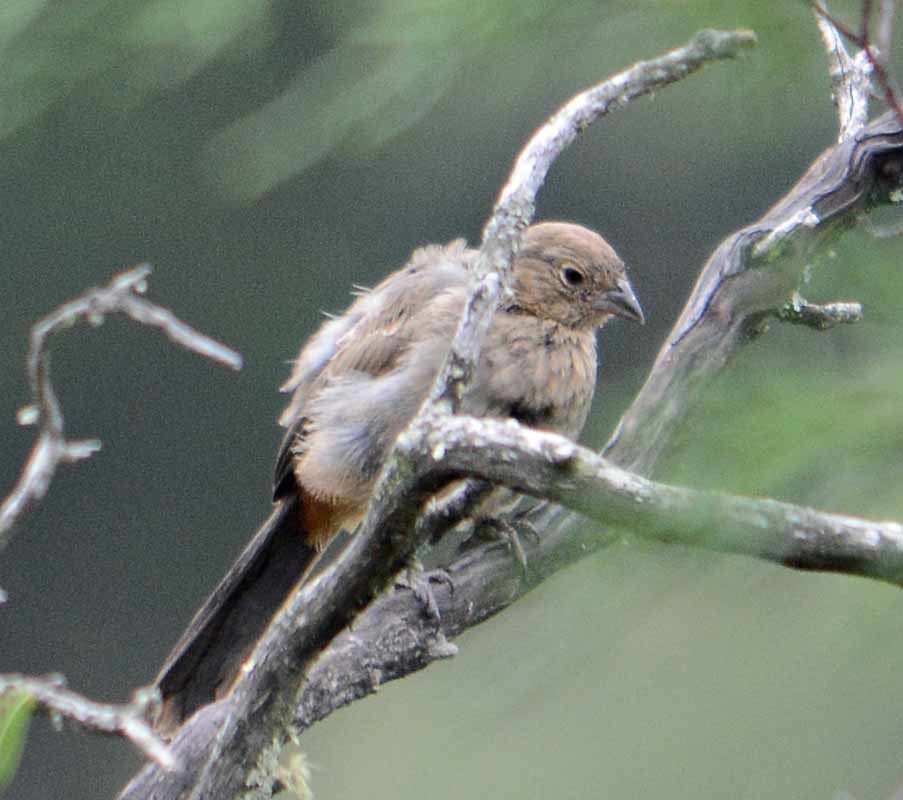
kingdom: Animalia
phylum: Chordata
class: Aves
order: Passeriformes
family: Passerellidae
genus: Melozone
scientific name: Melozone fusca
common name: Canyon towhee
